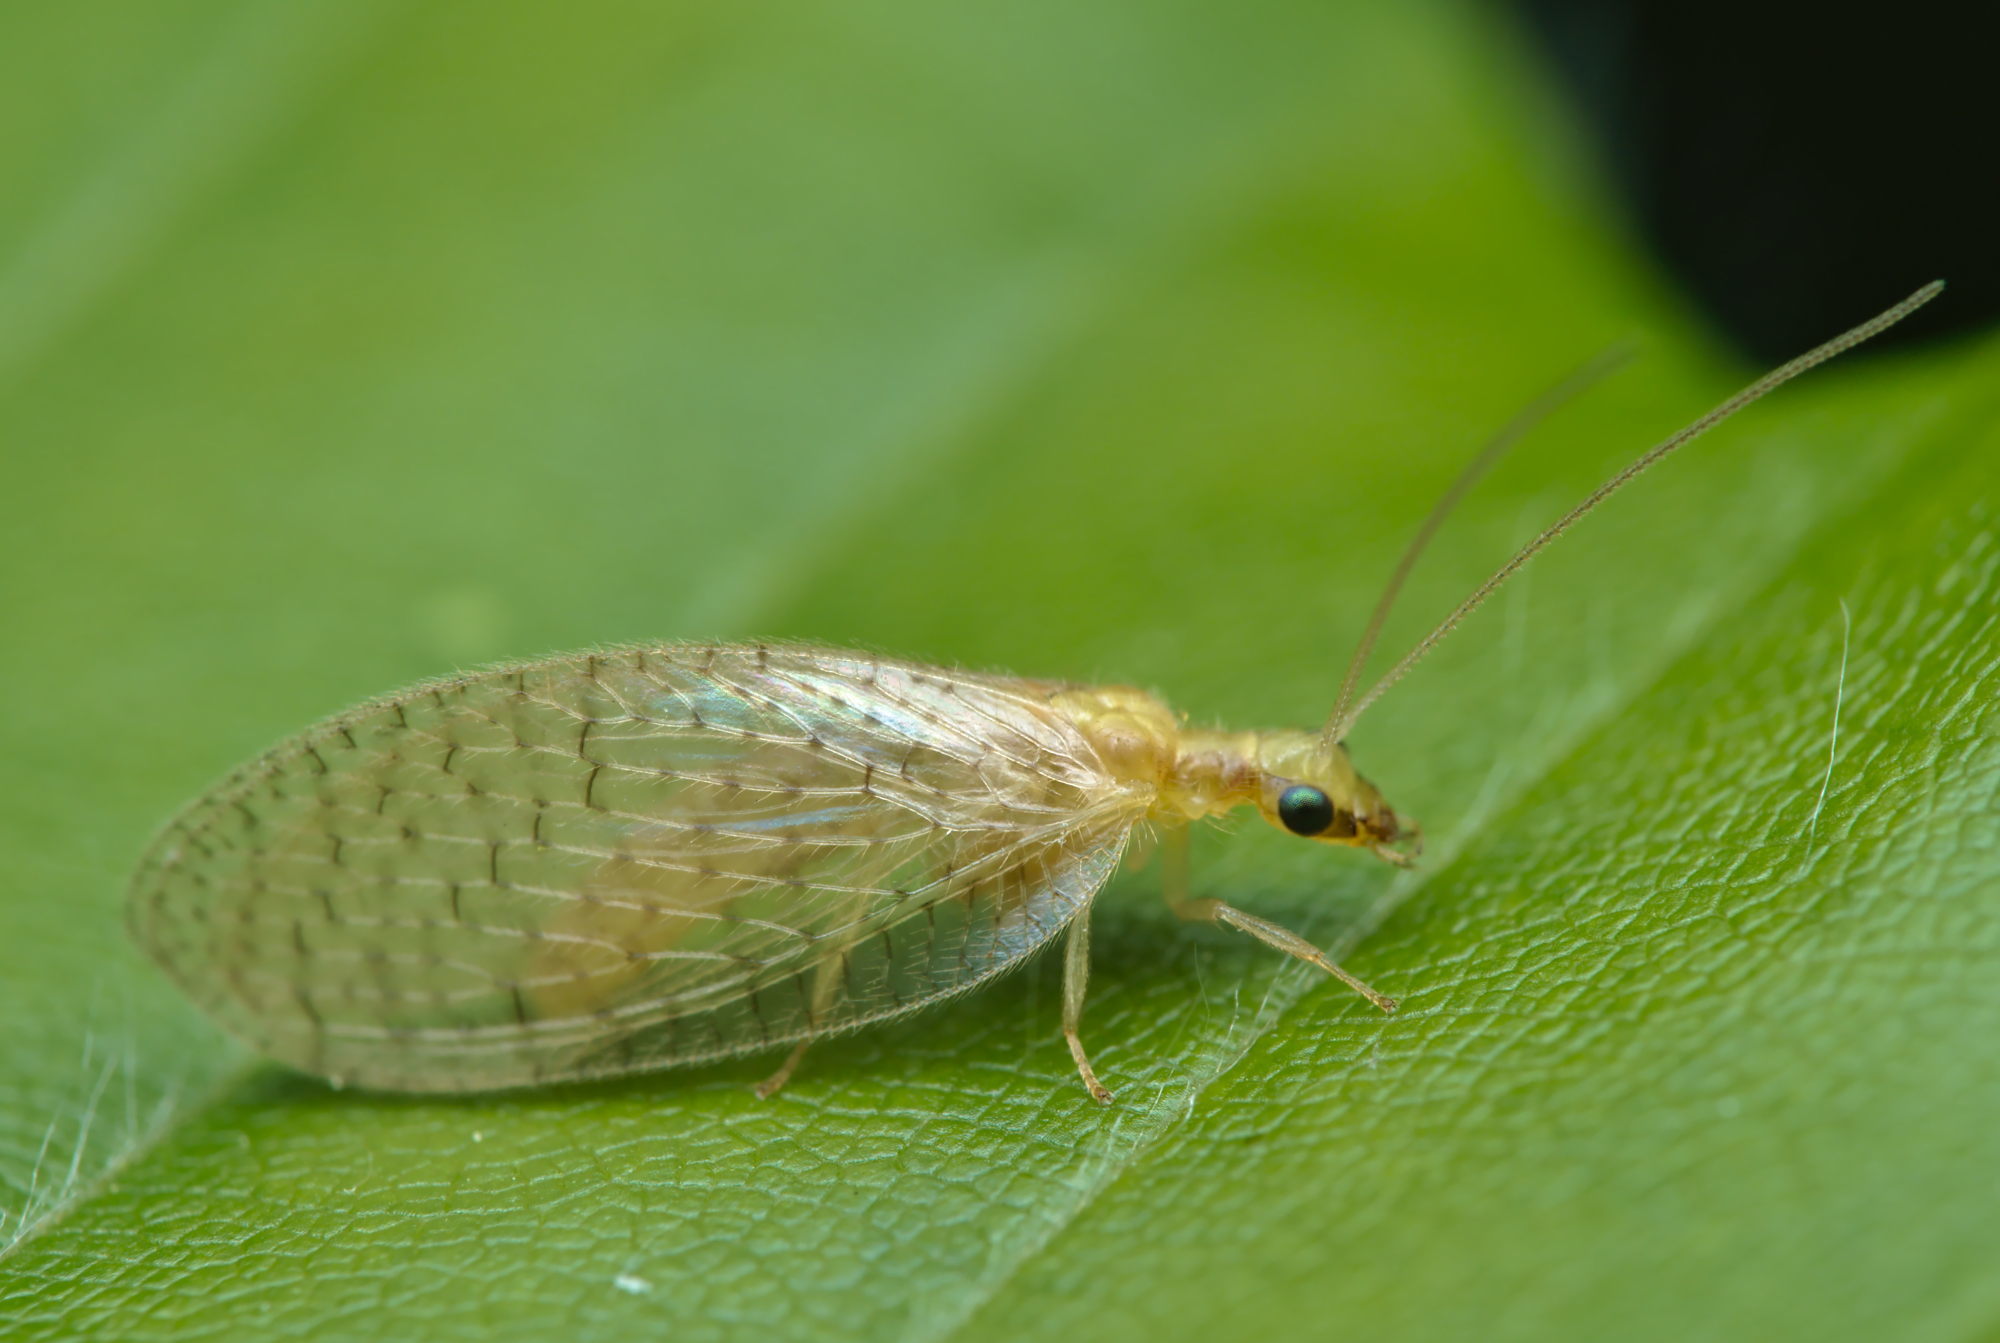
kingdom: Animalia
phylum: Arthropoda
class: Insecta
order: Neuroptera
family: Hemerobiidae
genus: Hemerobius
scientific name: Hemerobius micans
